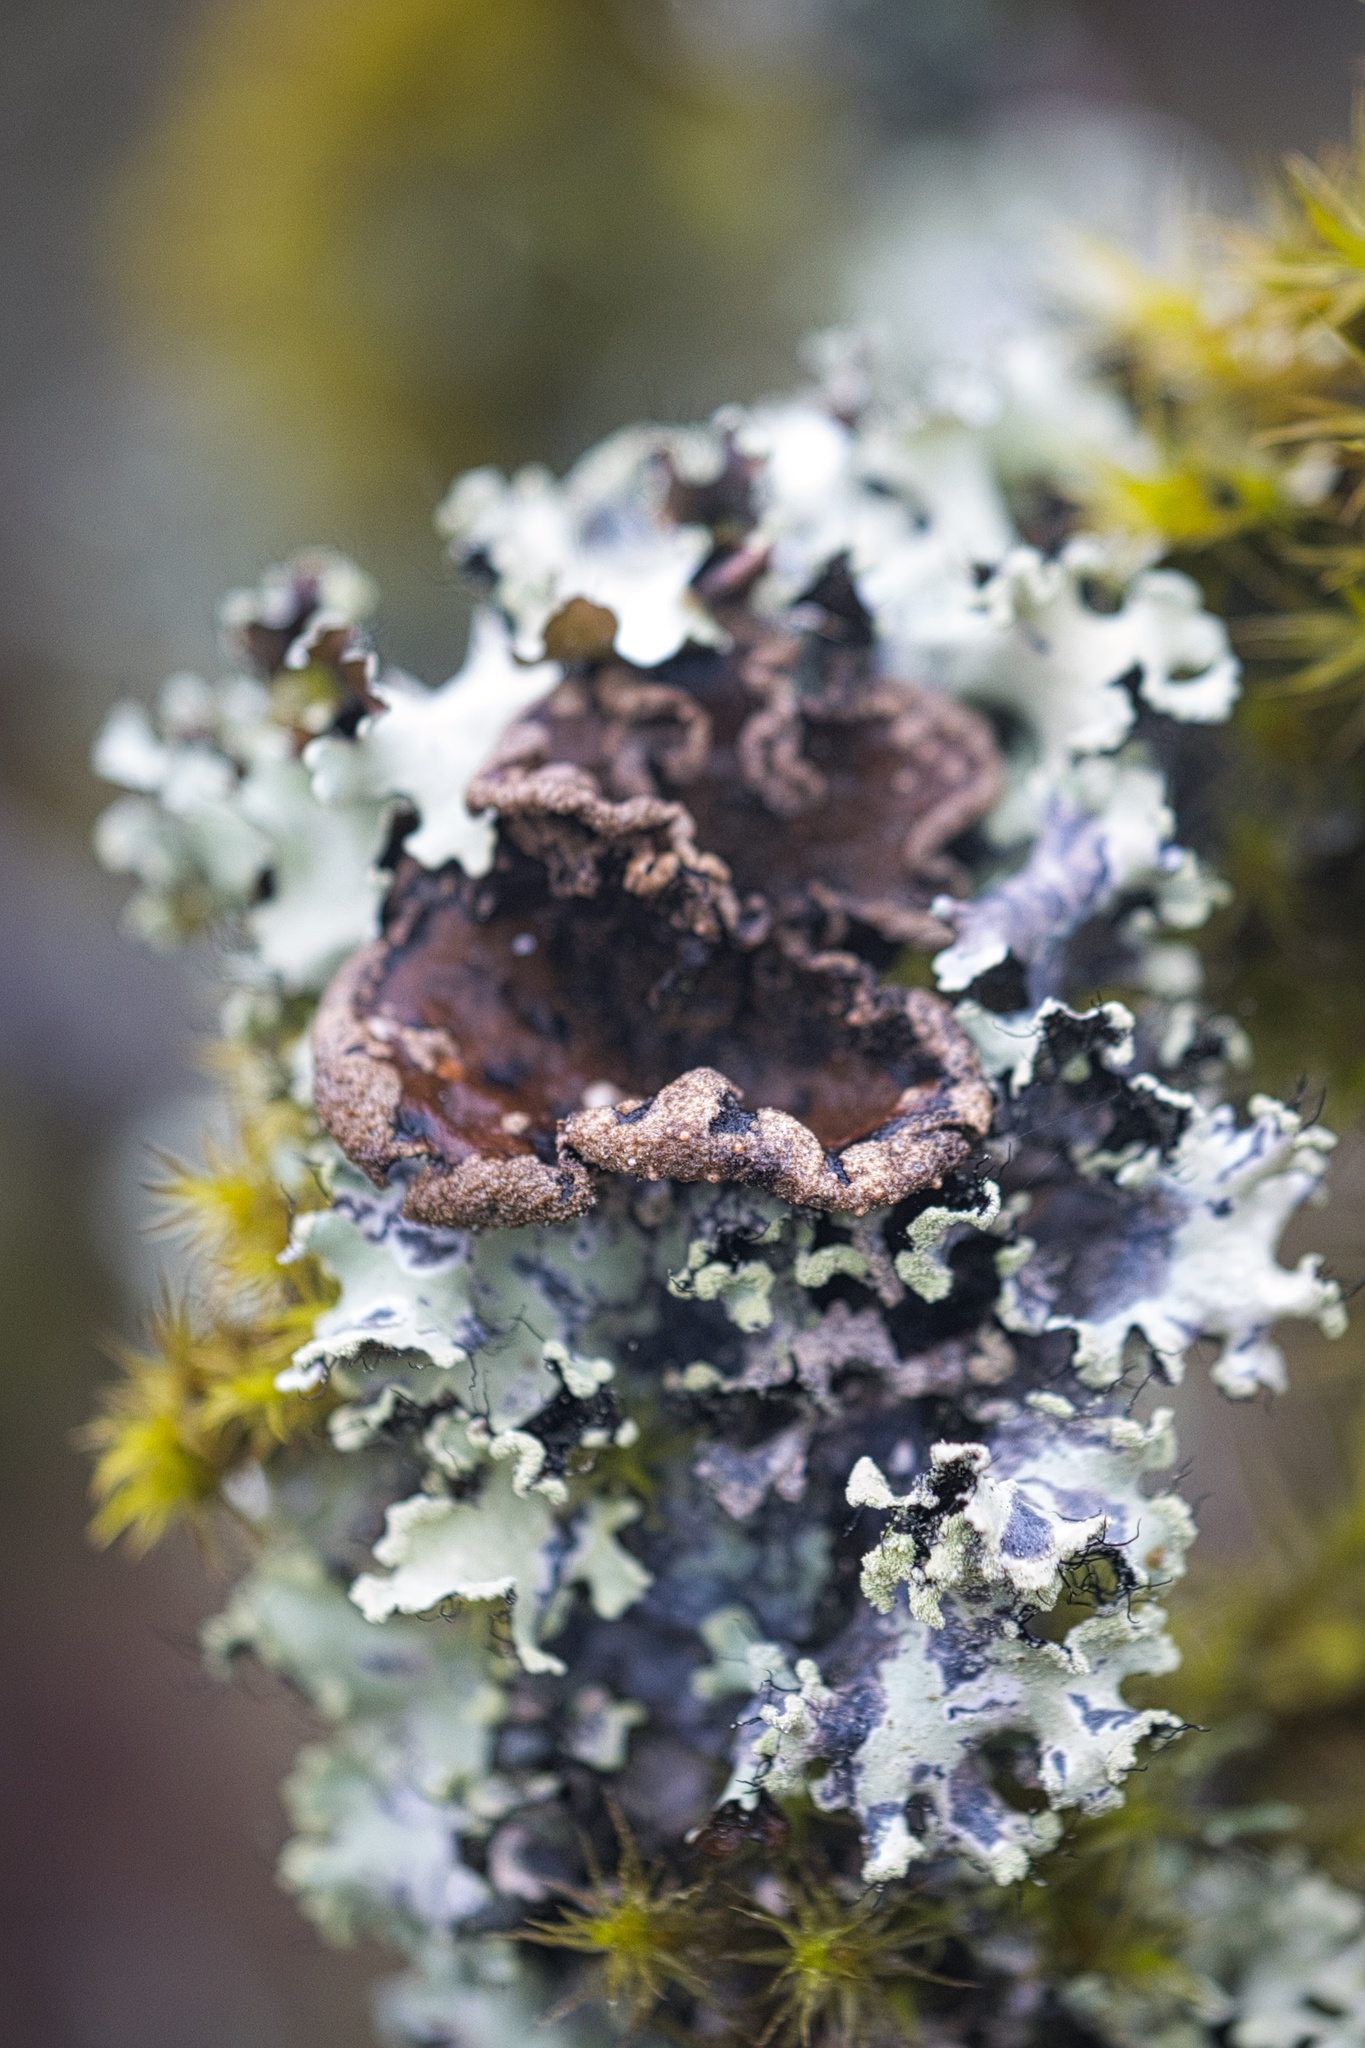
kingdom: Fungi
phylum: Ascomycota
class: Lecanoromycetes
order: Peltigerales
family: Lobariaceae
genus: Sticta
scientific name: Sticta limbata
